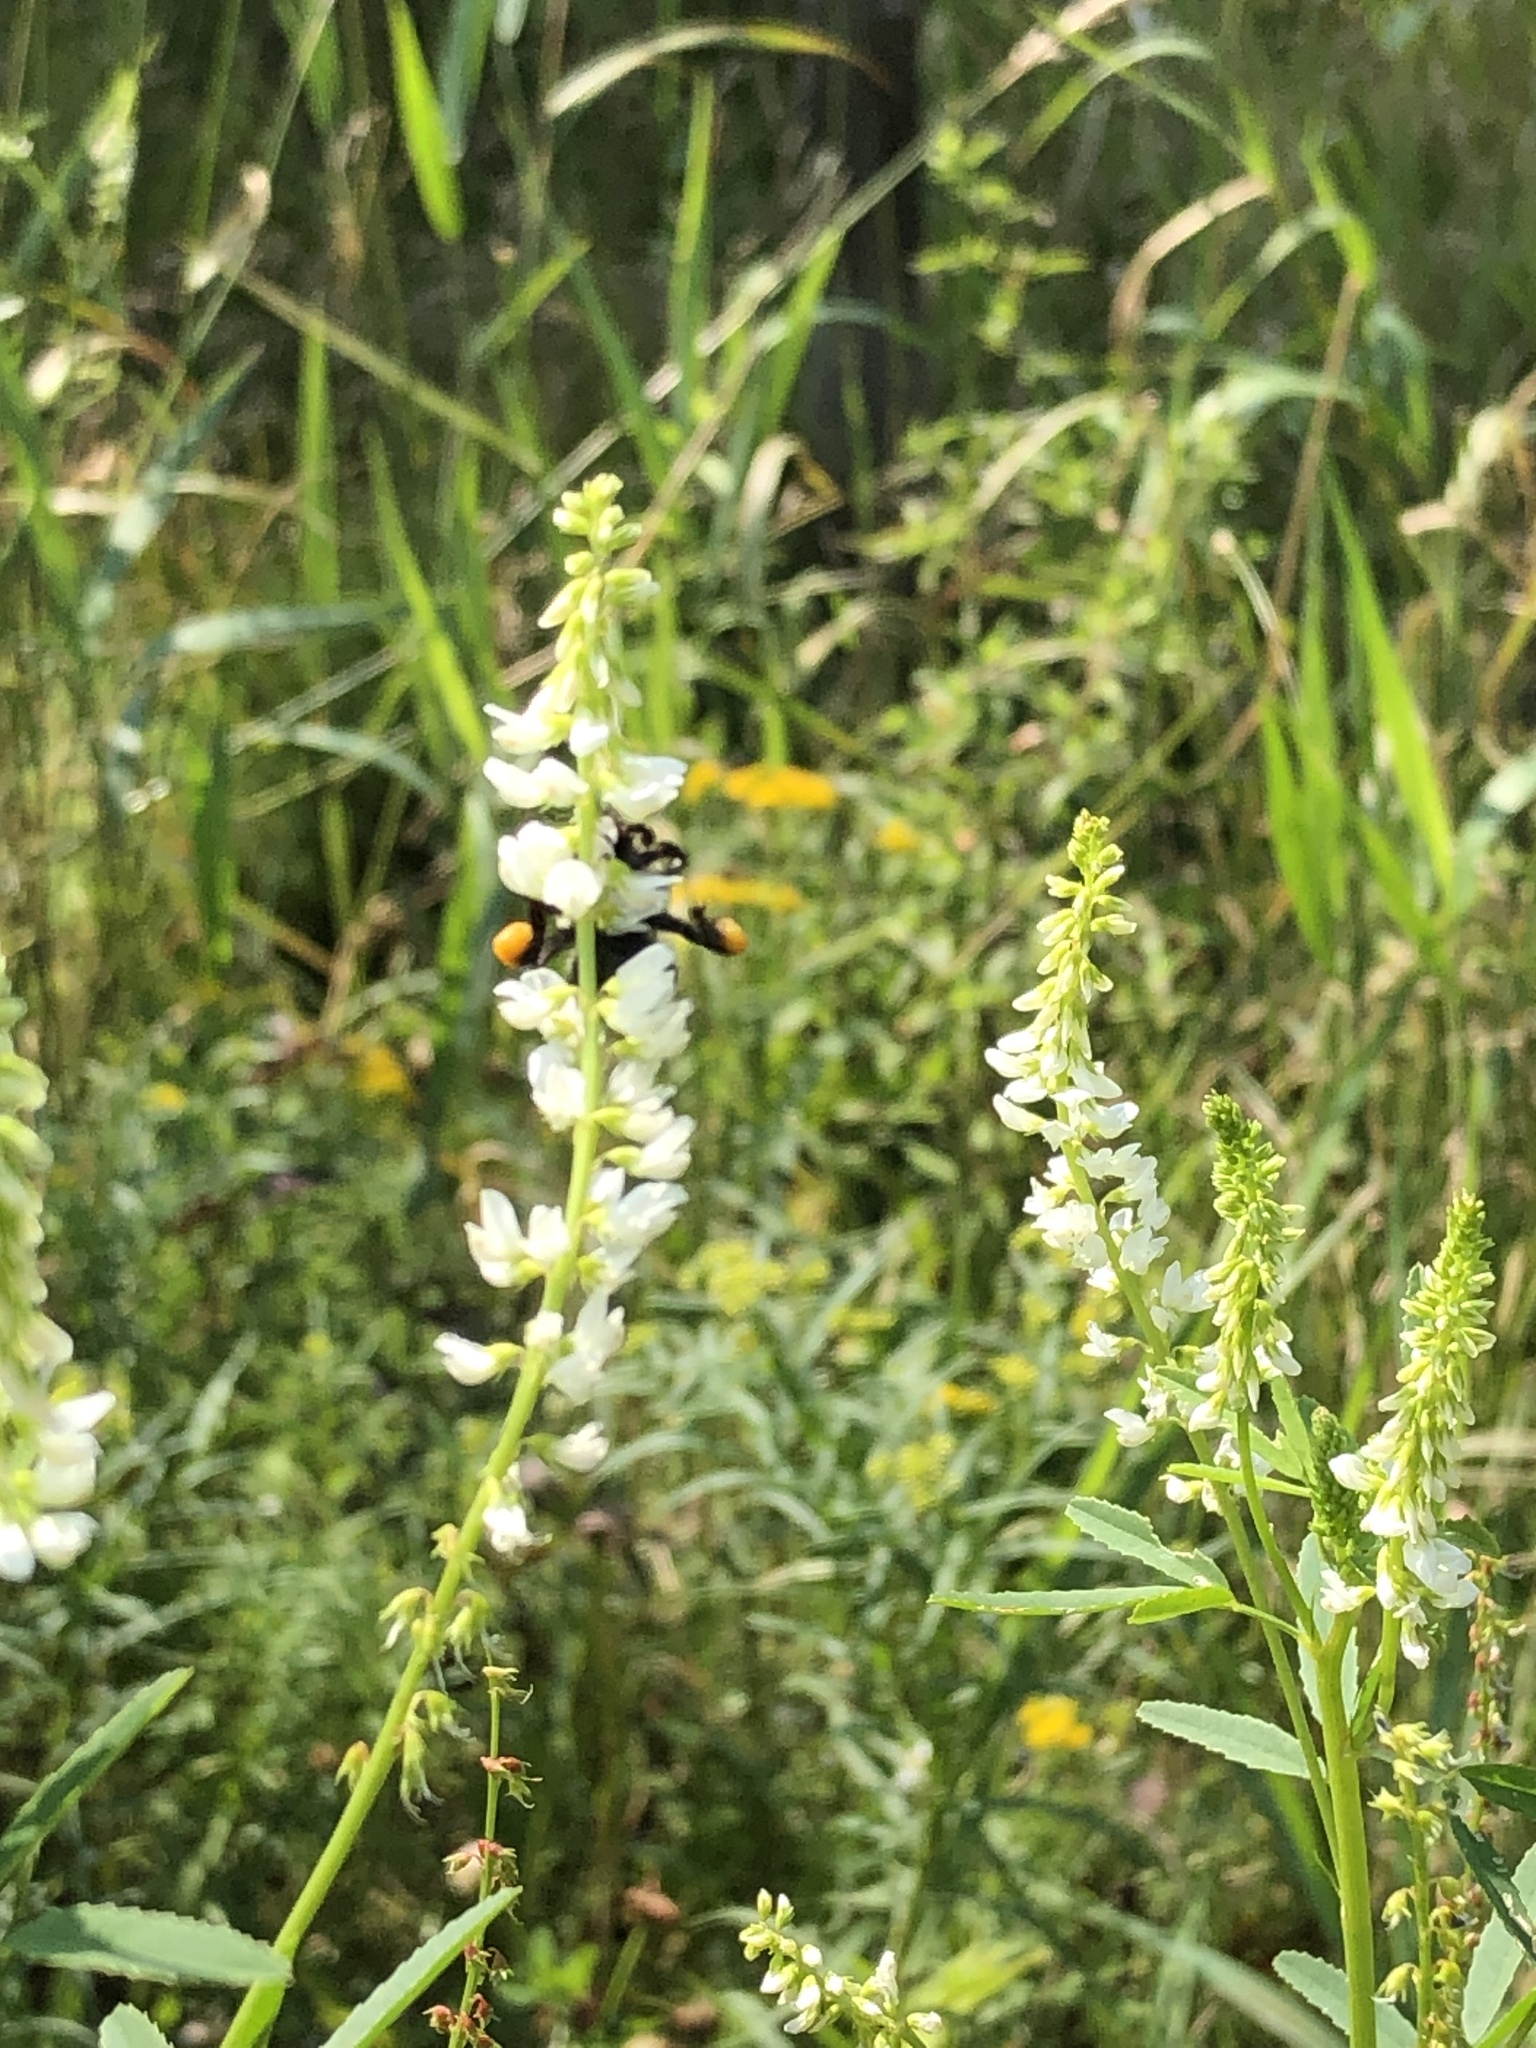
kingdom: Animalia
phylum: Arthropoda
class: Insecta
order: Hymenoptera
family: Apidae
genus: Bombus
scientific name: Bombus
